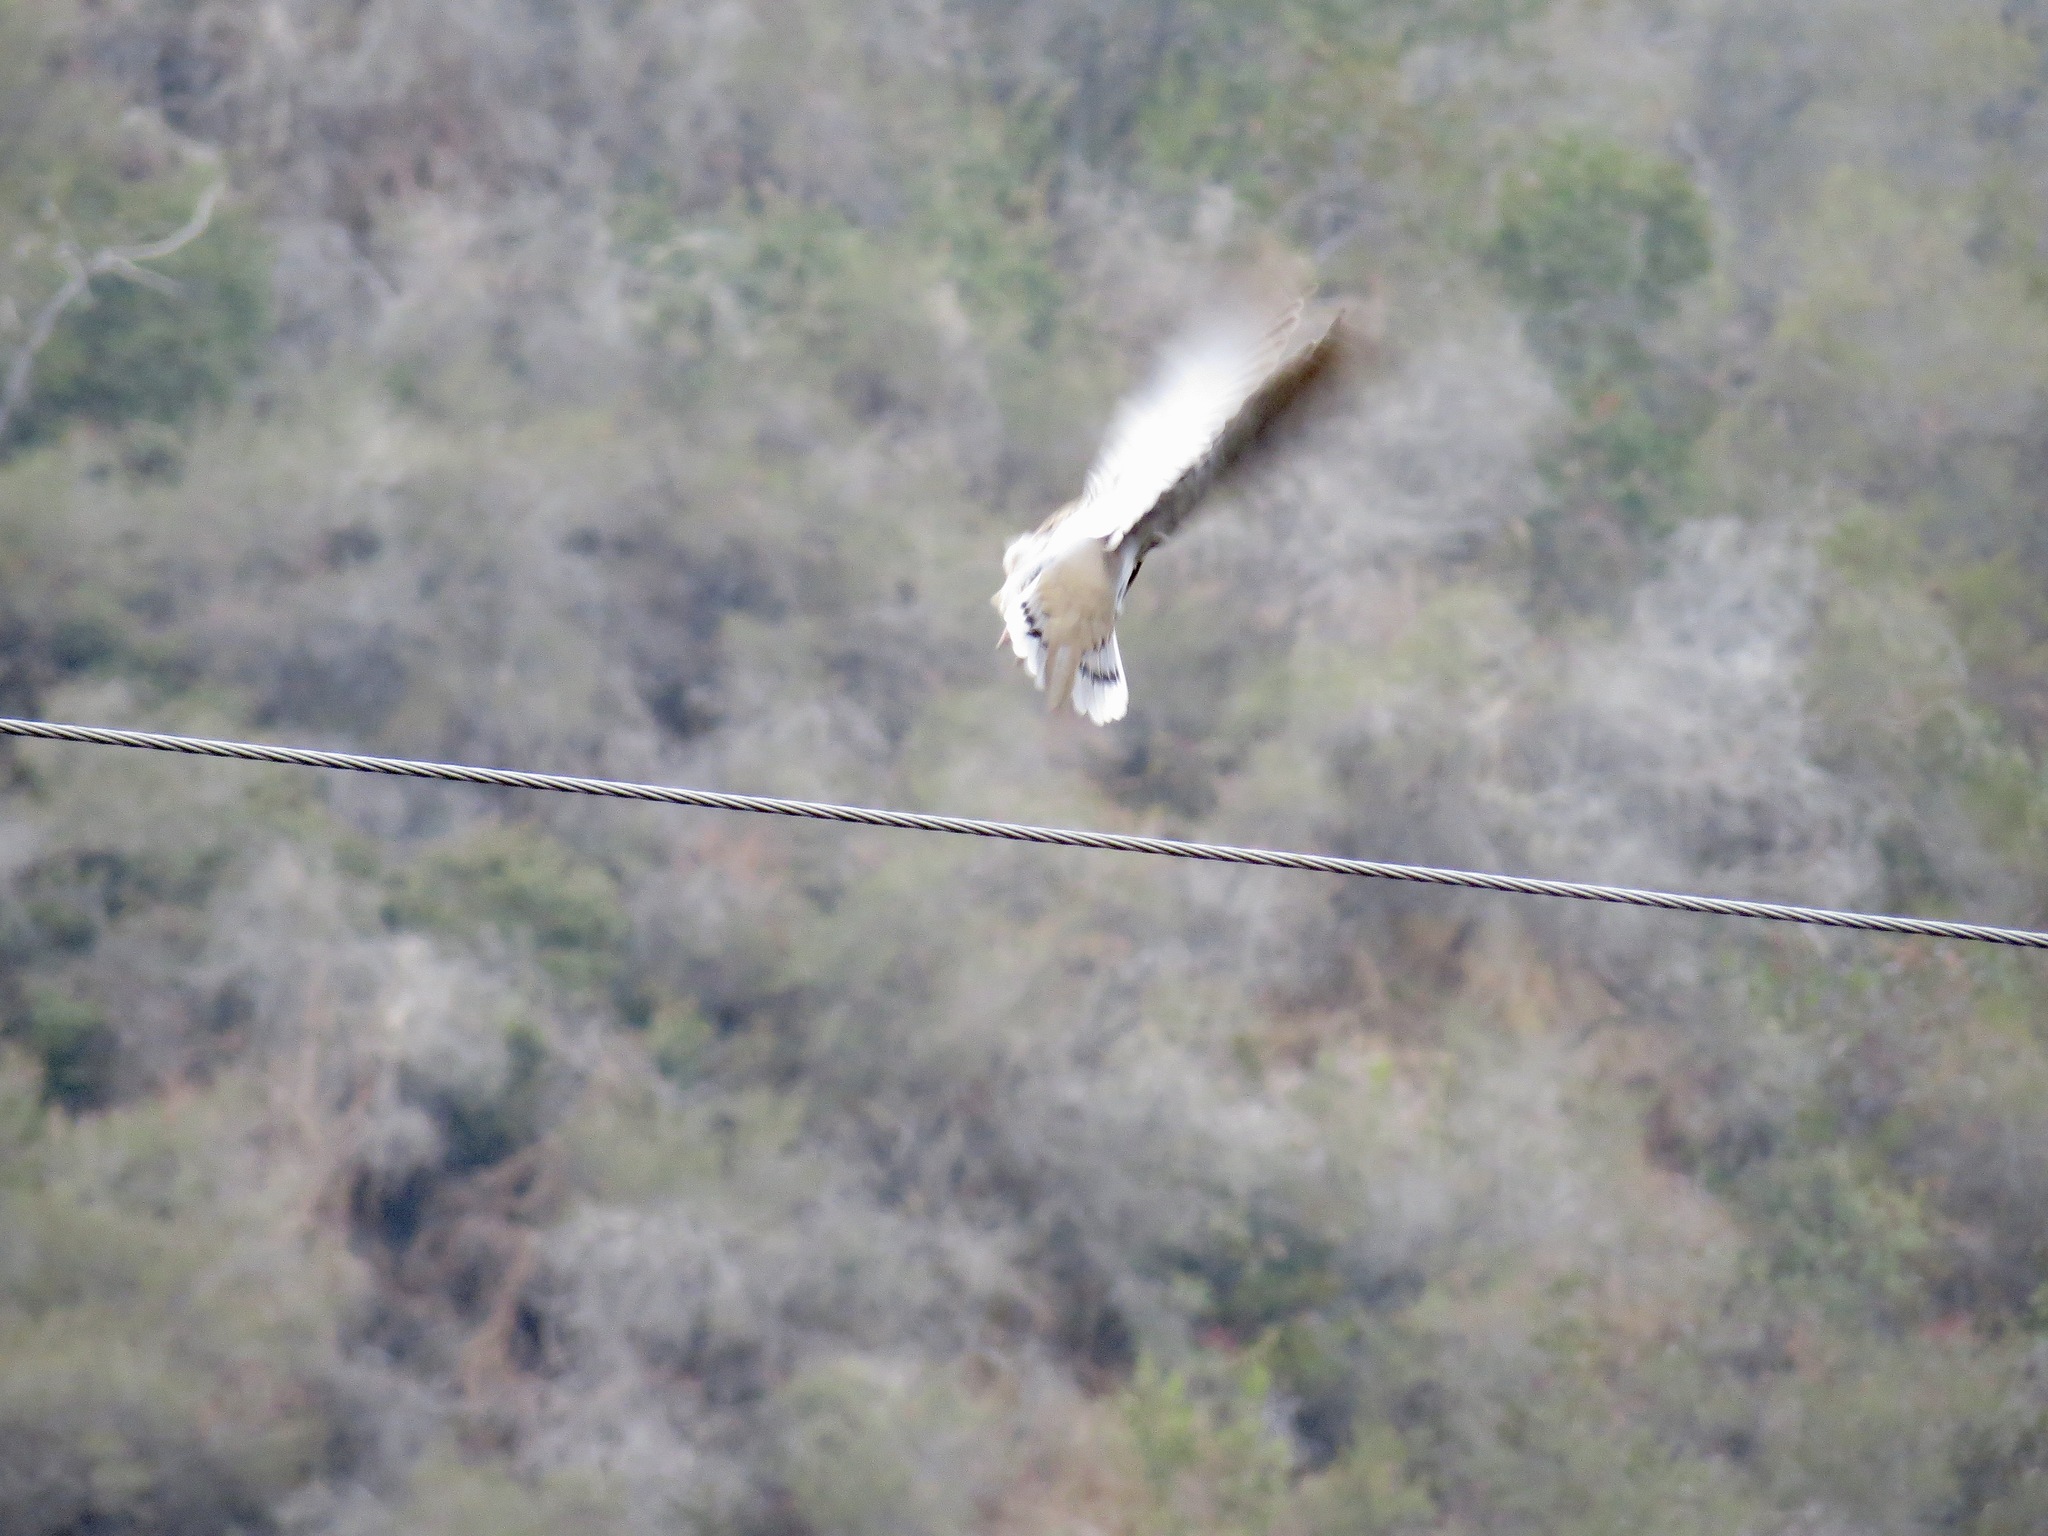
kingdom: Animalia
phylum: Chordata
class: Aves
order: Columbiformes
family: Columbidae
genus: Zenaida
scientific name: Zenaida macroura
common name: Mourning dove
